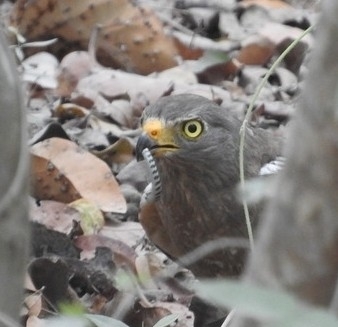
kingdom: Animalia
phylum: Chordata
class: Squamata
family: Scincidae
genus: Mesoscincus
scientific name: Mesoscincus schwartzei
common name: Mayan black-headed skink
